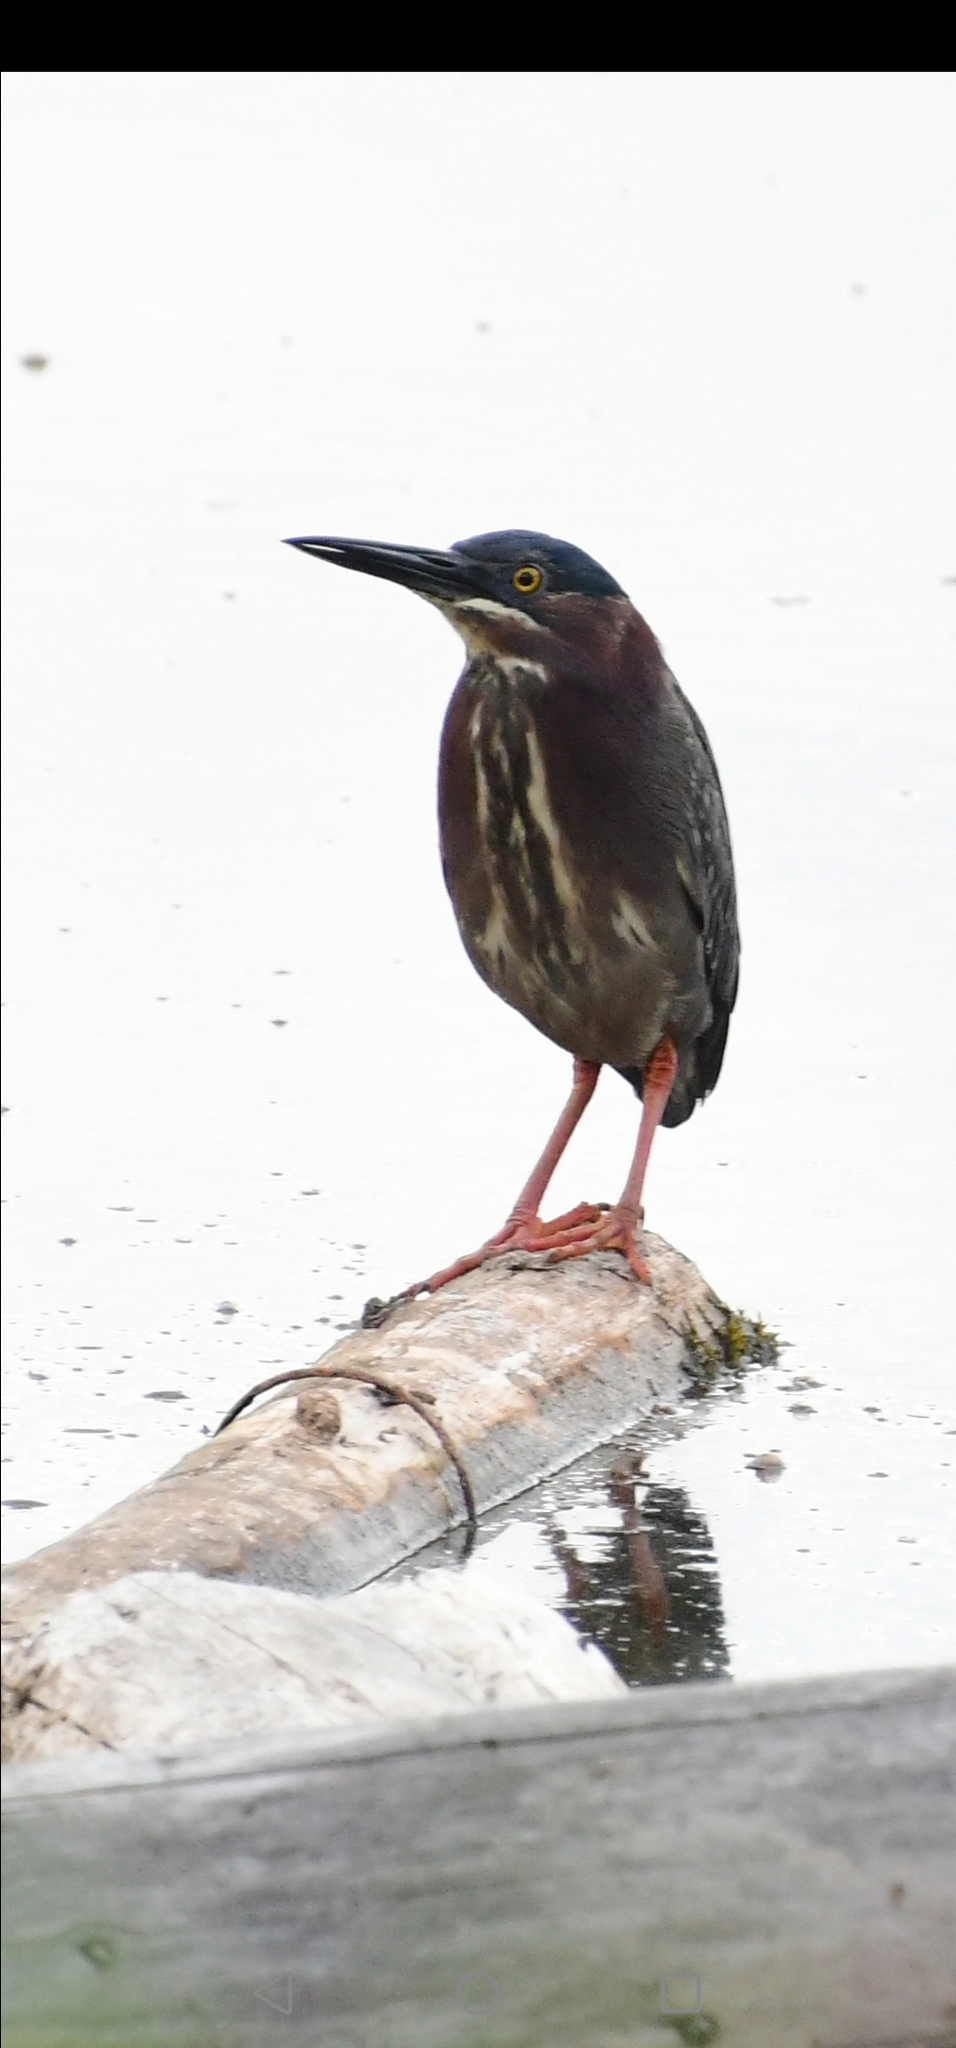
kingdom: Animalia
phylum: Chordata
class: Aves
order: Pelecaniformes
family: Ardeidae
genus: Butorides
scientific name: Butorides virescens
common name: Green heron
